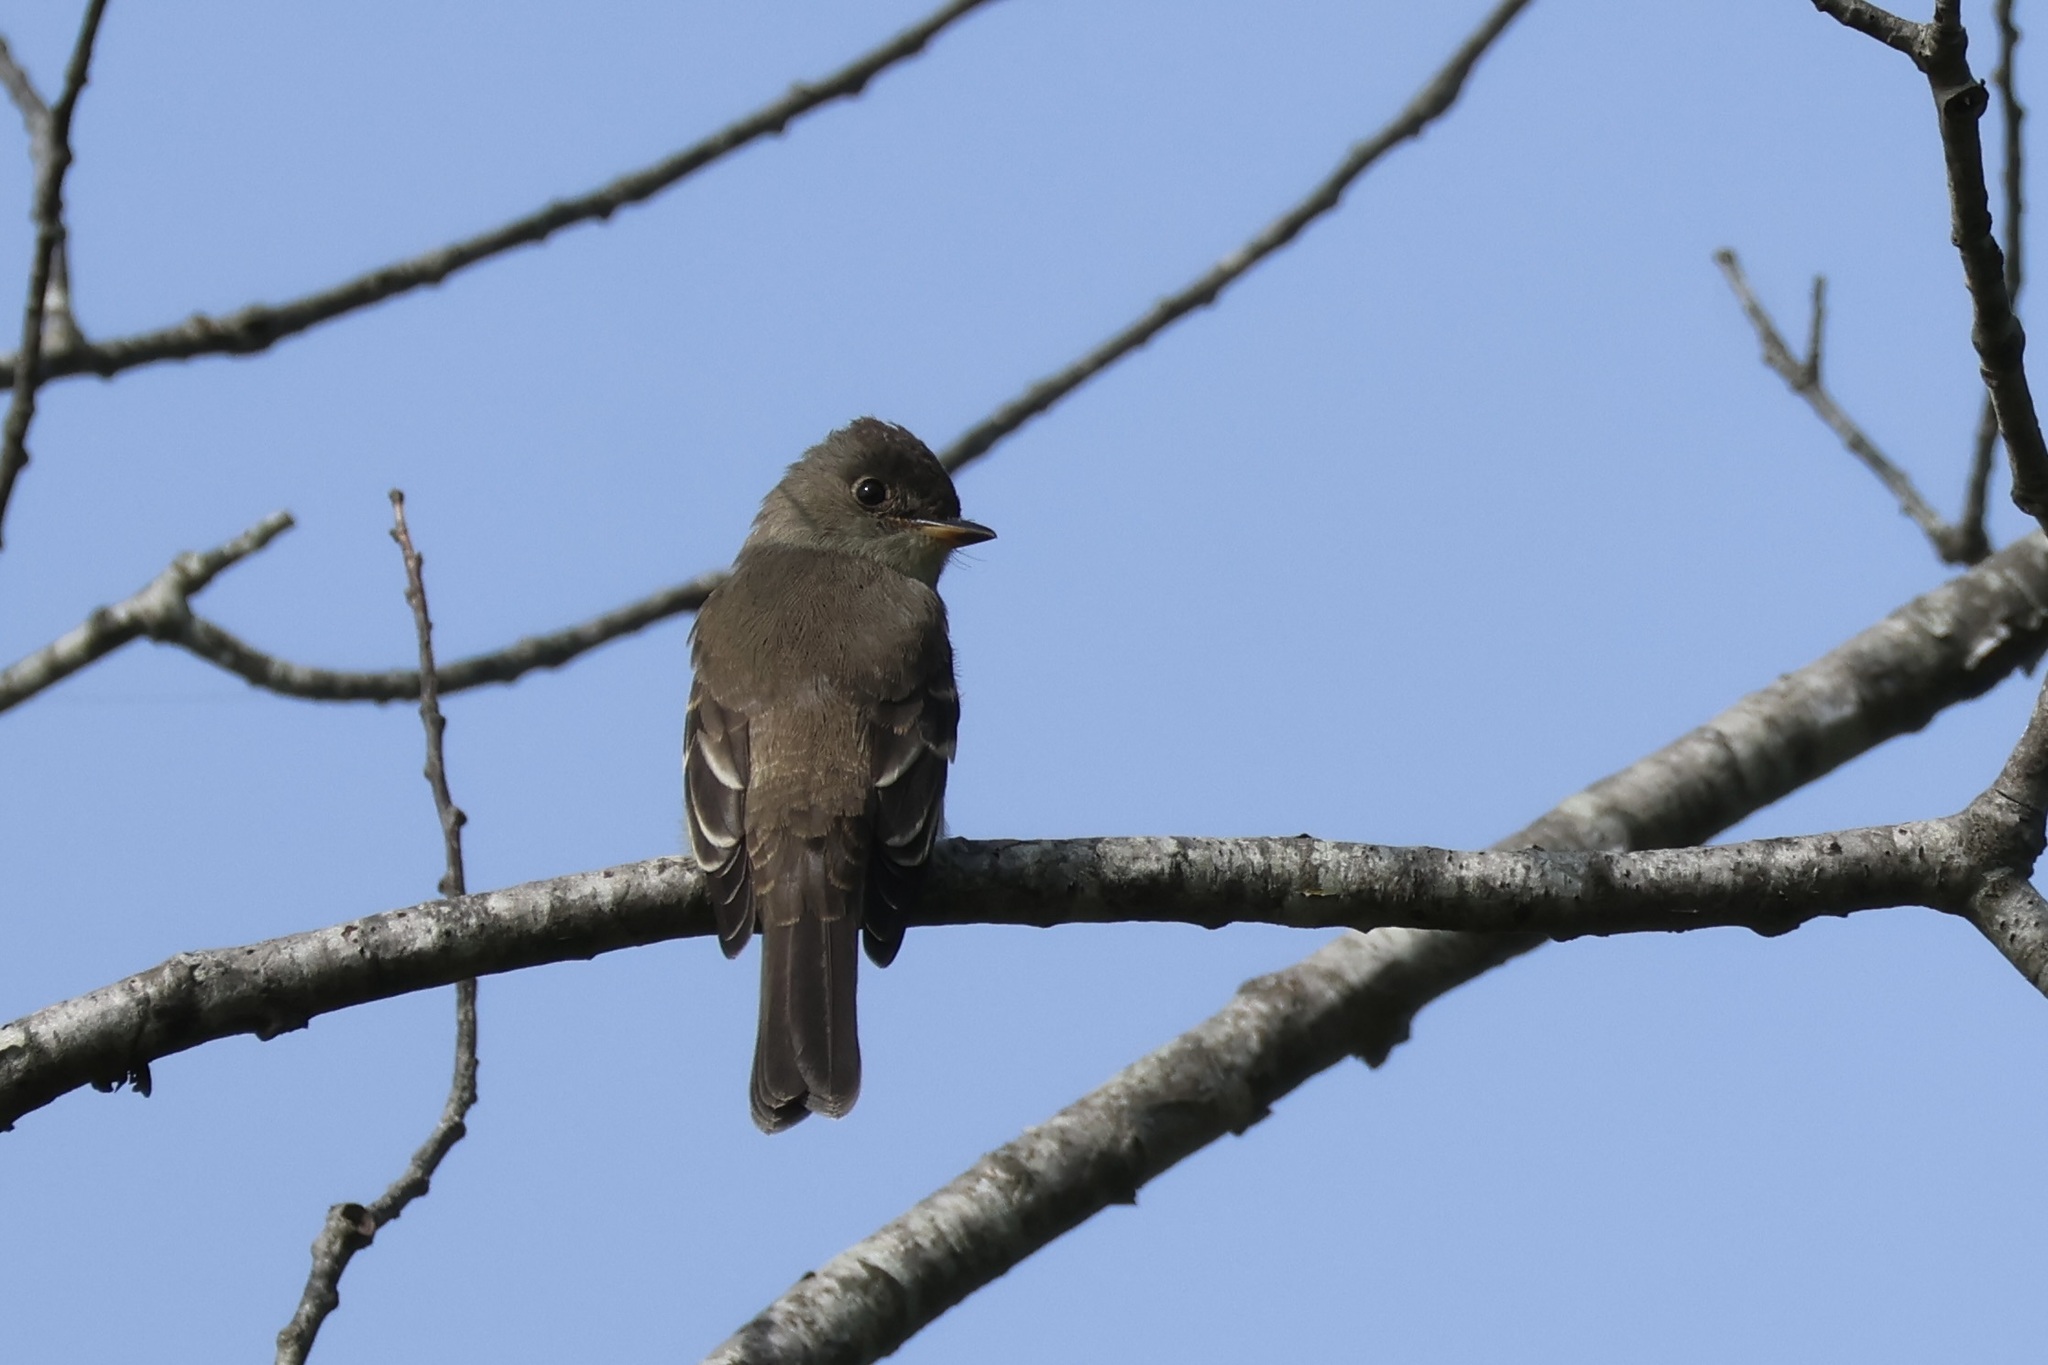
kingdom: Animalia
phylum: Chordata
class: Aves
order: Passeriformes
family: Tyrannidae
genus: Contopus
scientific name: Contopus virens
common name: Eastern wood-pewee
